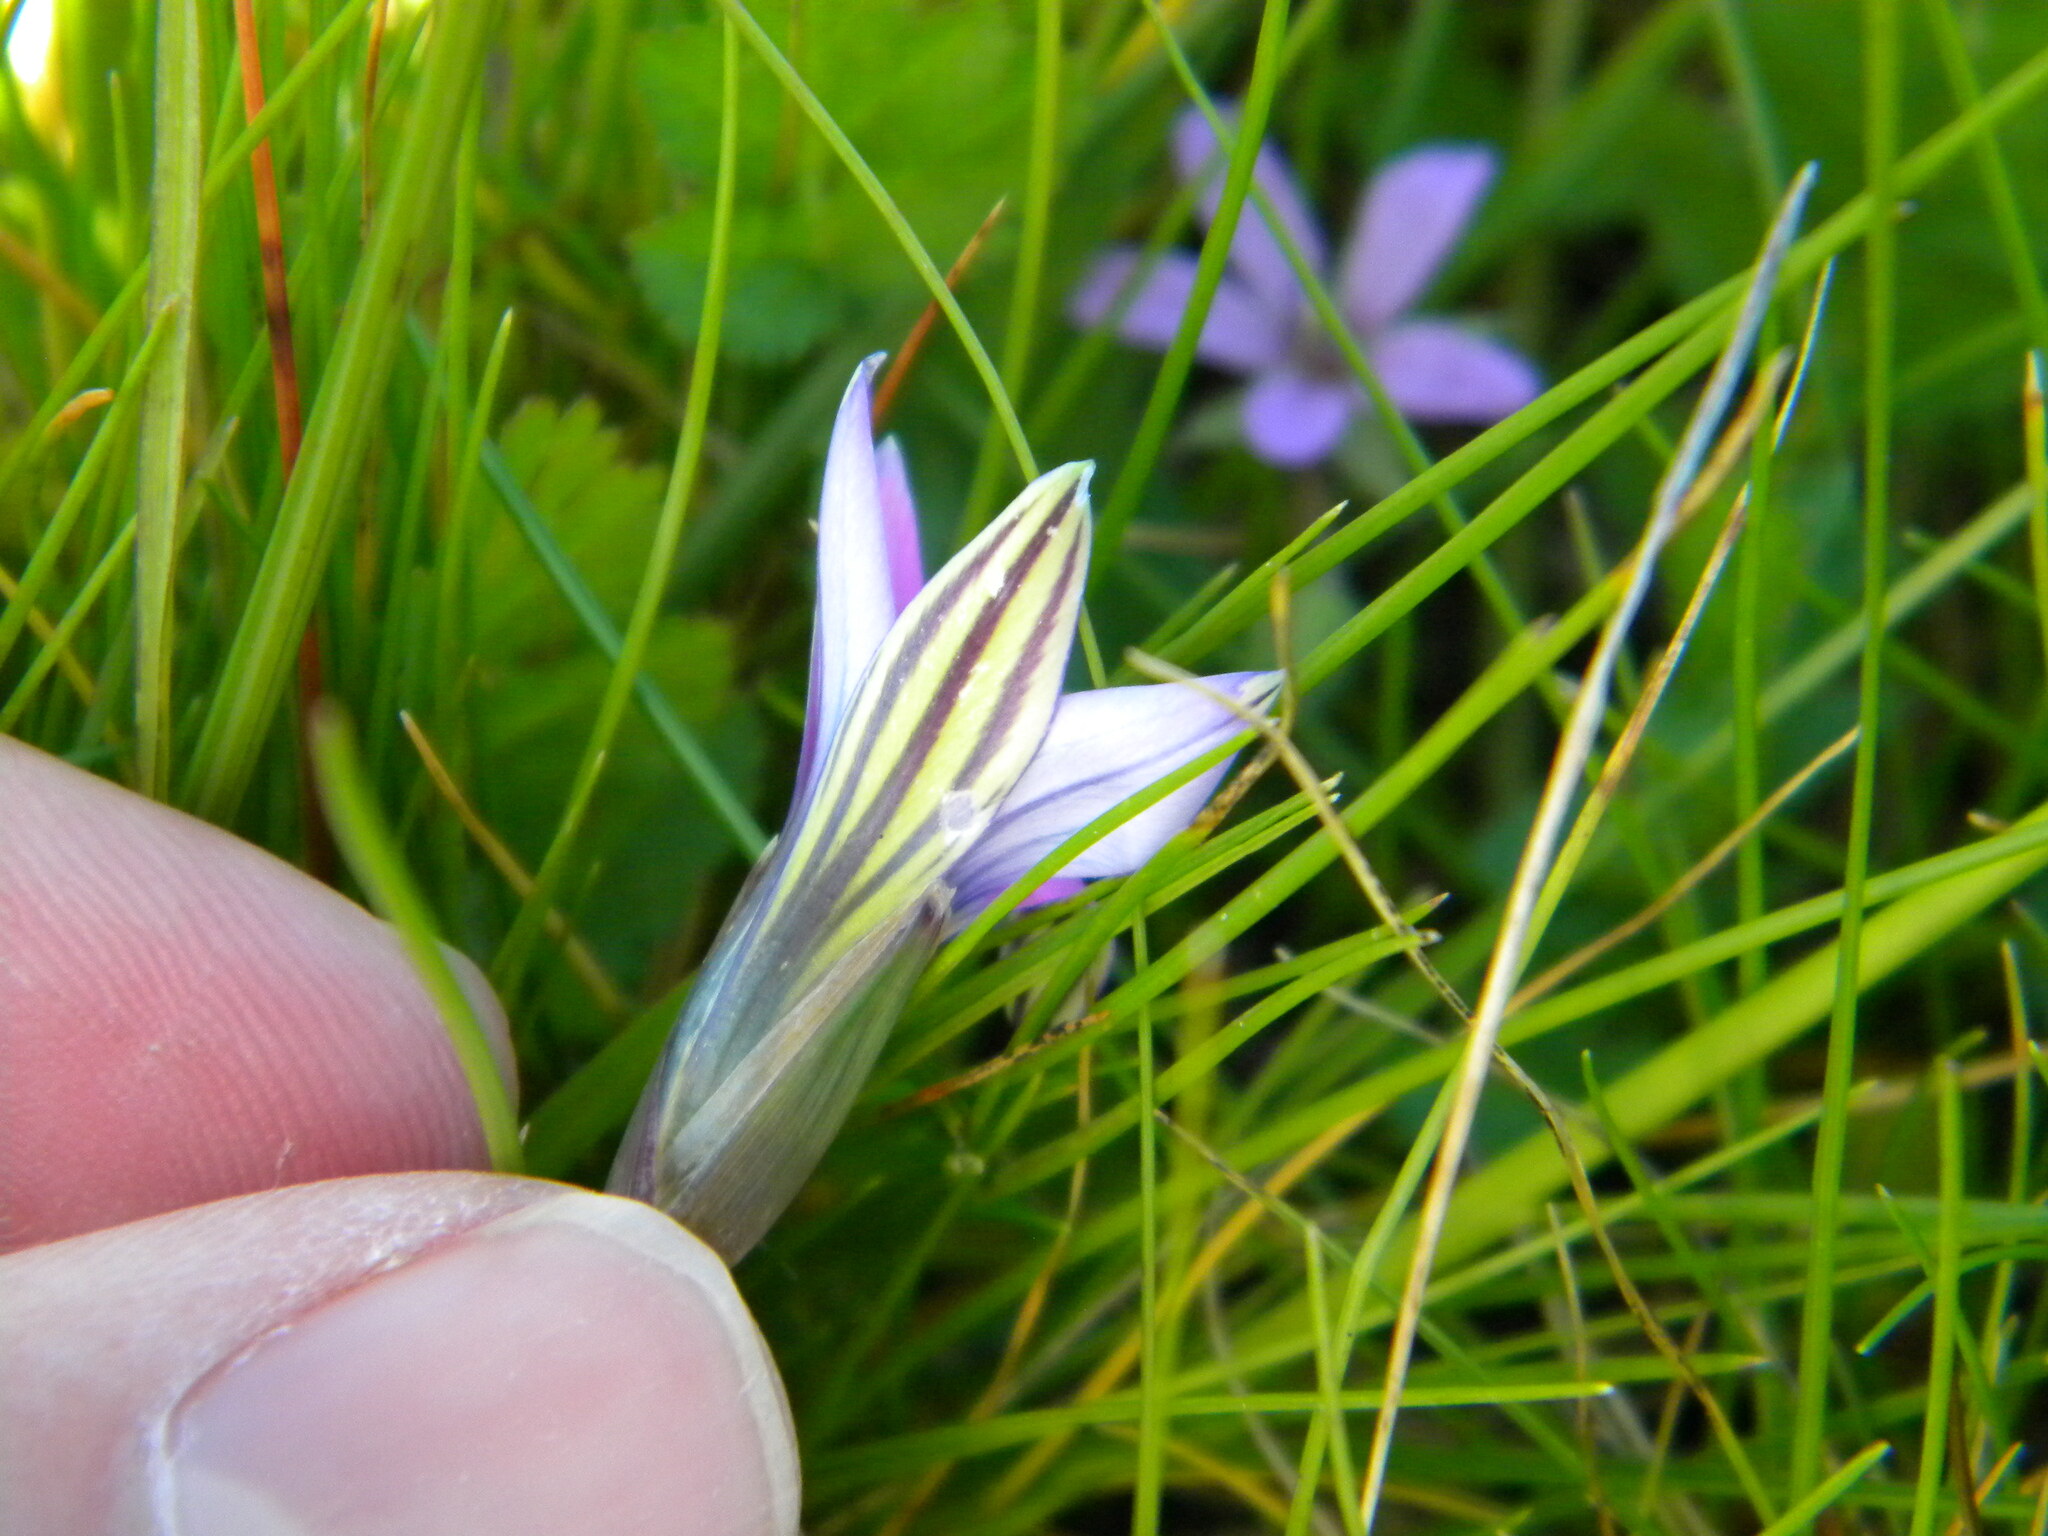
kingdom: Plantae
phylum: Tracheophyta
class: Liliopsida
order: Asparagales
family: Iridaceae
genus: Romulea
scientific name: Romulea rosea
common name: Oniongrass
